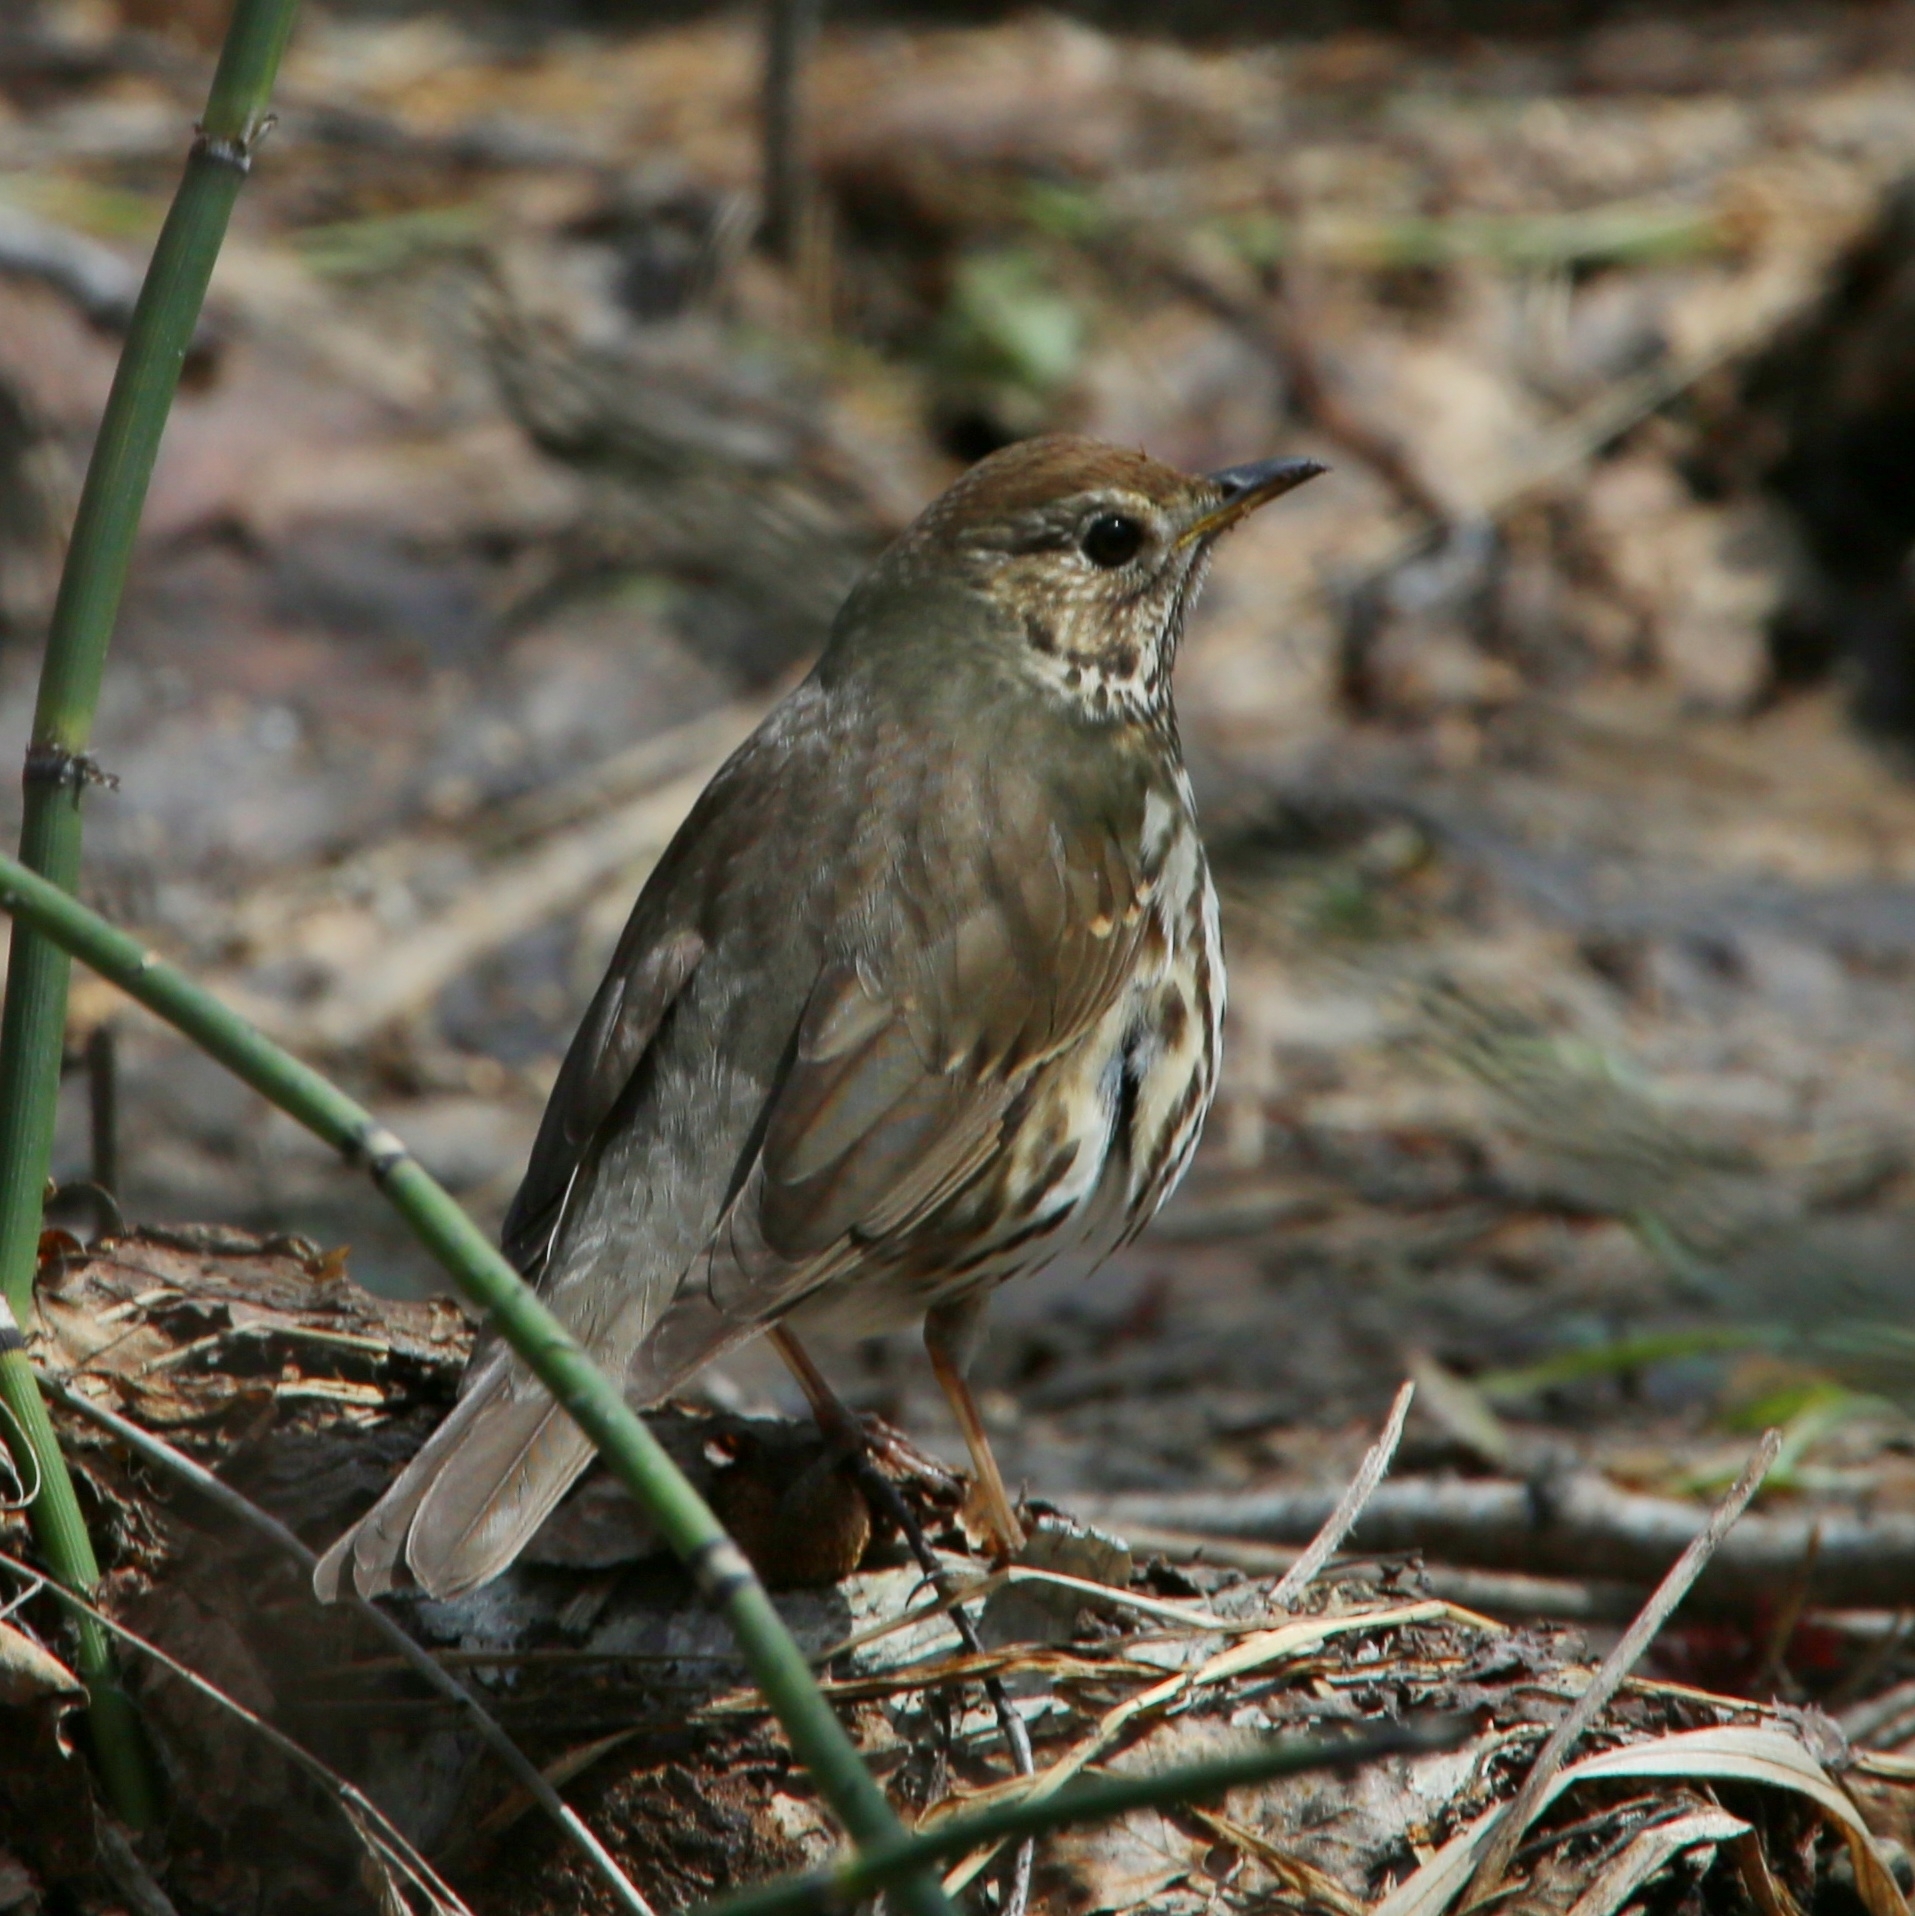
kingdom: Animalia
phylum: Chordata
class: Aves
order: Passeriformes
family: Turdidae
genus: Turdus
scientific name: Turdus philomelos
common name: Song thrush
